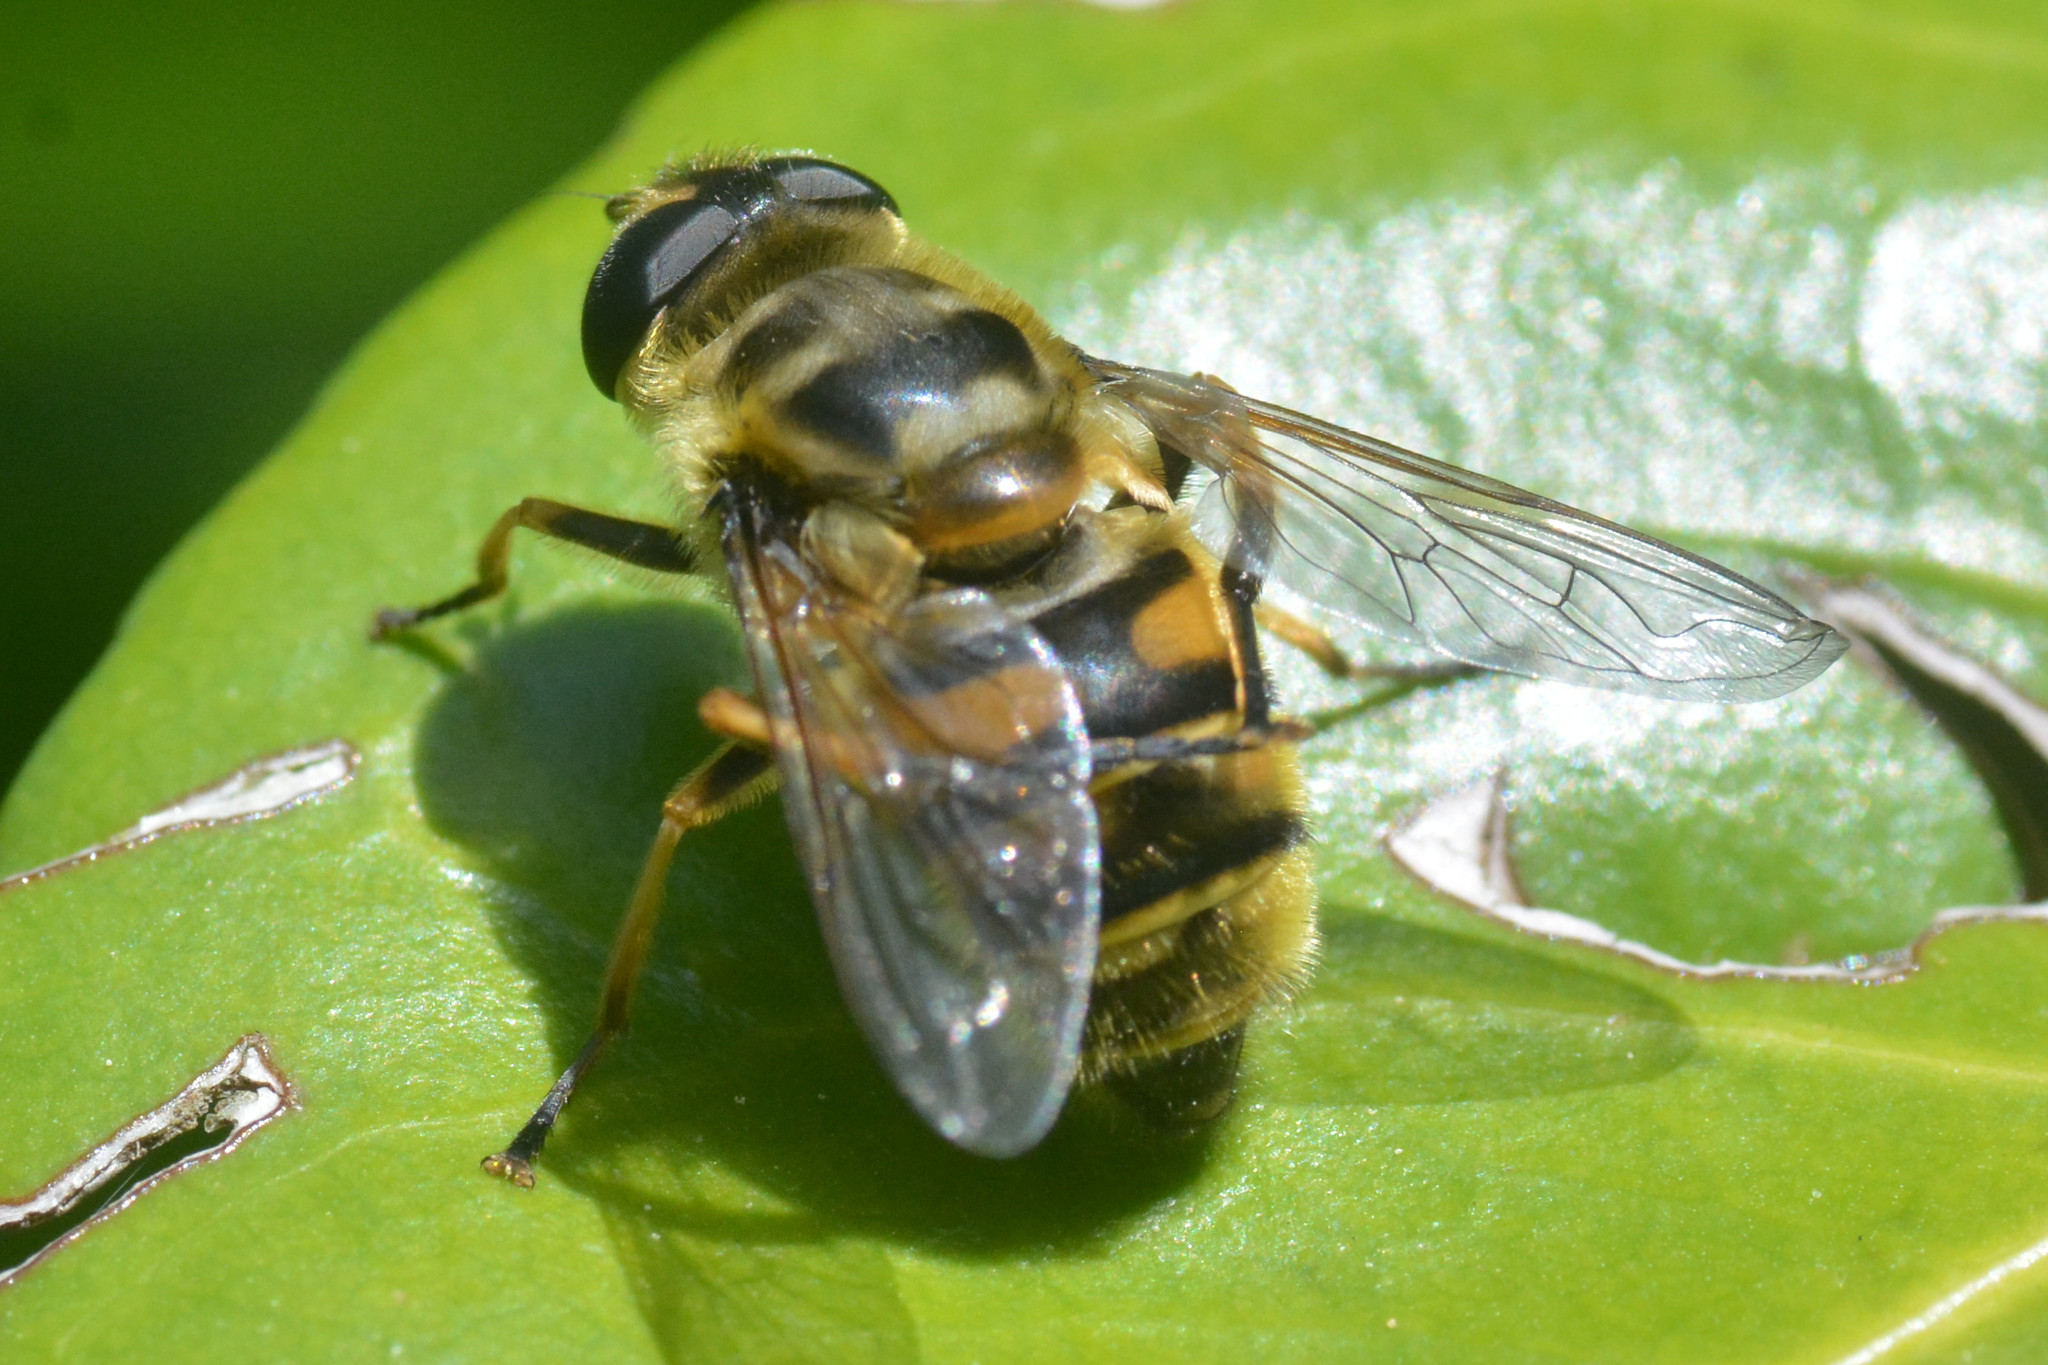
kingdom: Animalia
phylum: Arthropoda
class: Insecta
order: Diptera
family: Syrphidae
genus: Myathropa
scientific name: Myathropa florea
